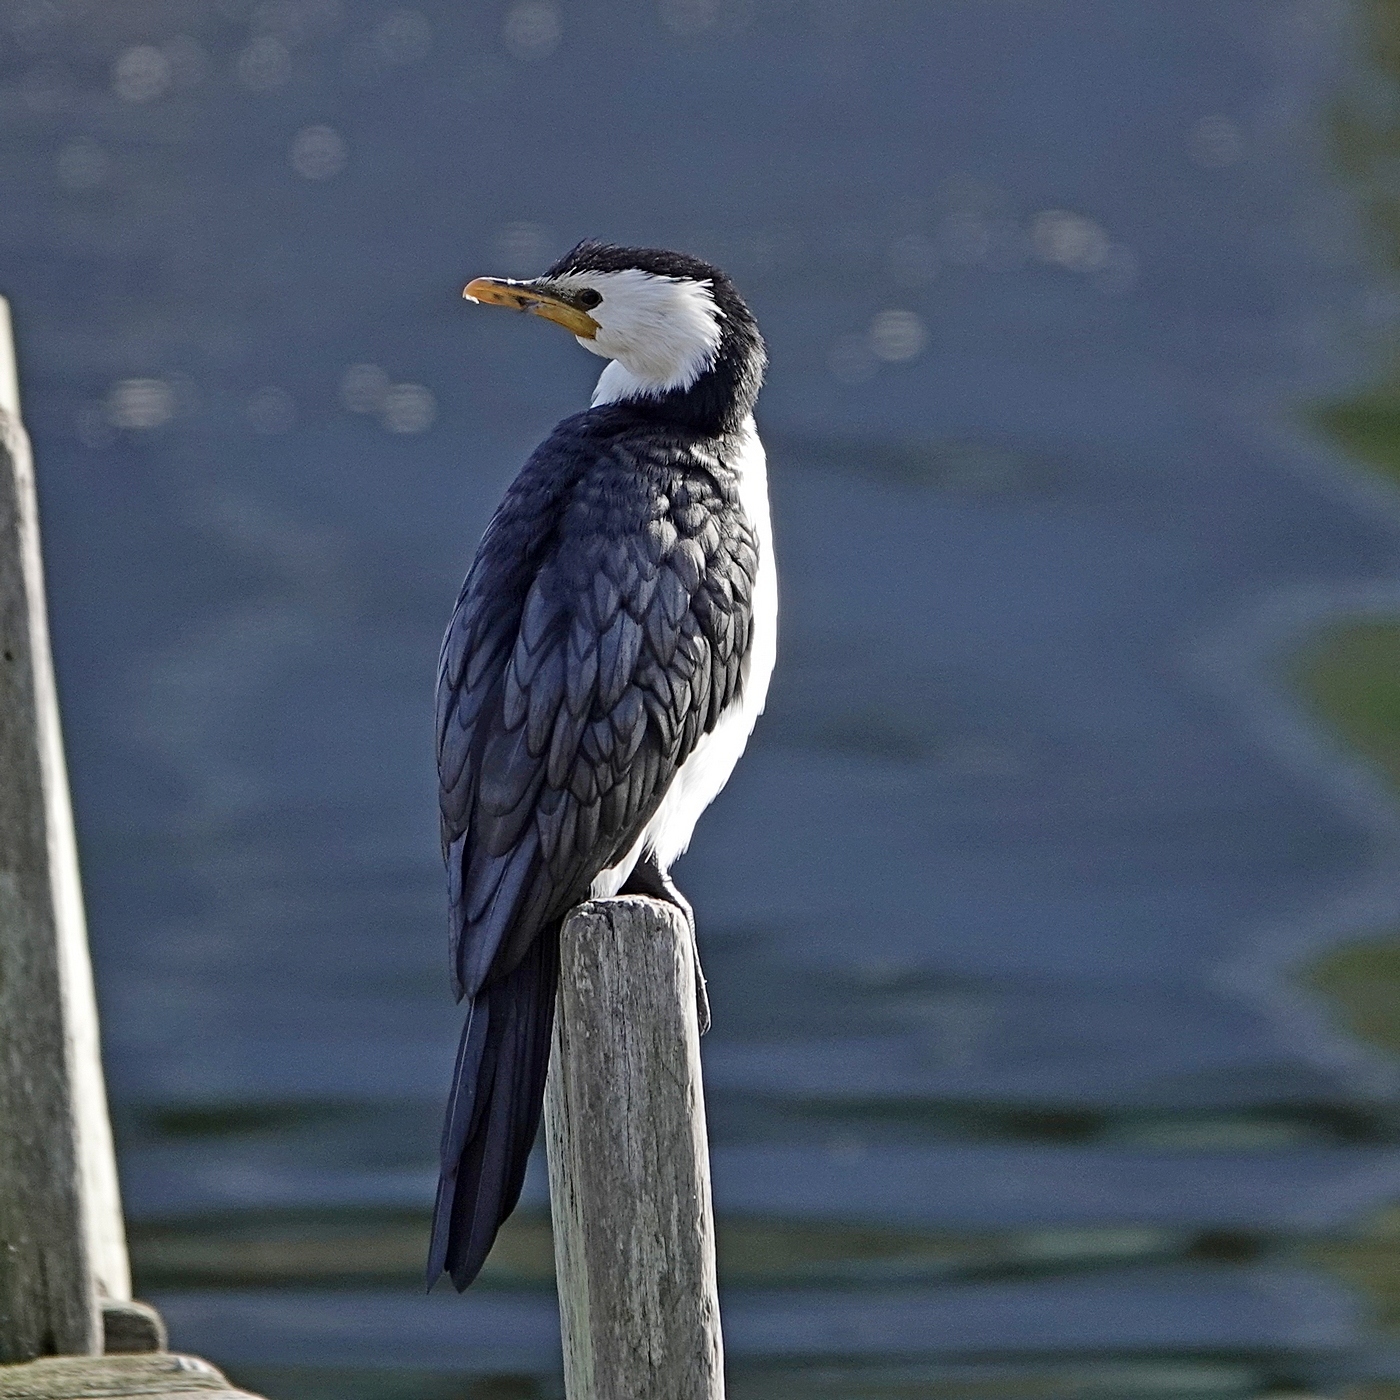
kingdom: Animalia
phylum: Chordata
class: Aves
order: Suliformes
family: Phalacrocoracidae
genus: Microcarbo
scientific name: Microcarbo melanoleucos
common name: Little pied cormorant
